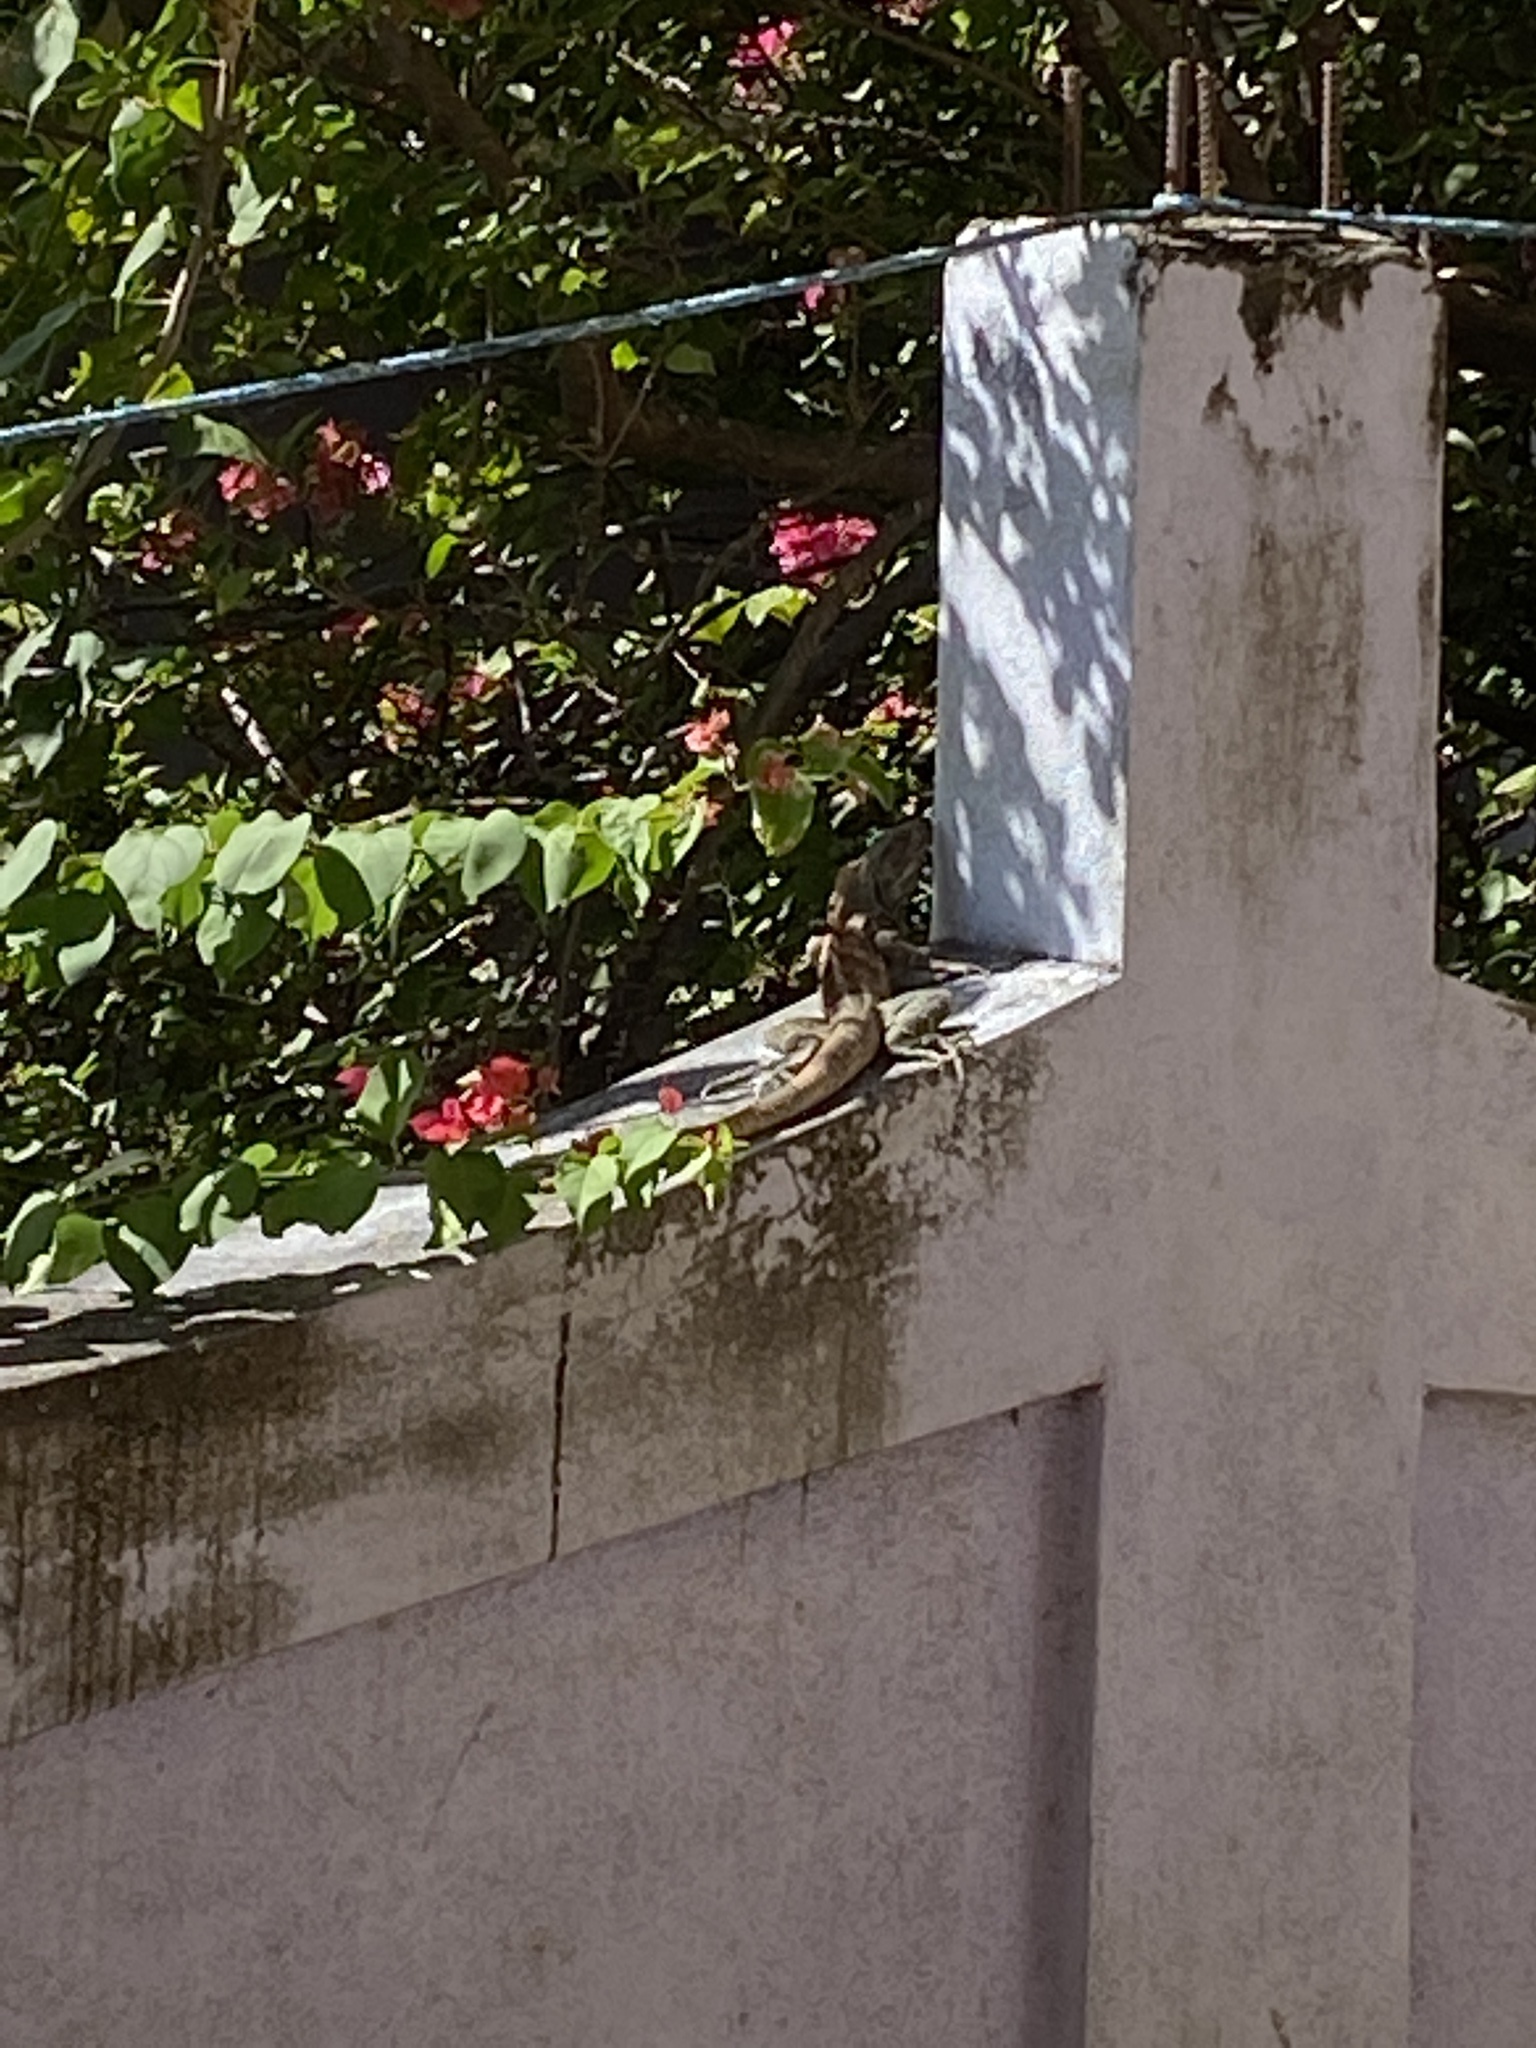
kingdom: Animalia
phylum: Chordata
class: Squamata
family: Iguanidae
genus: Ctenosaura
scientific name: Ctenosaura similis
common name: Black spiny-tailed iguana
